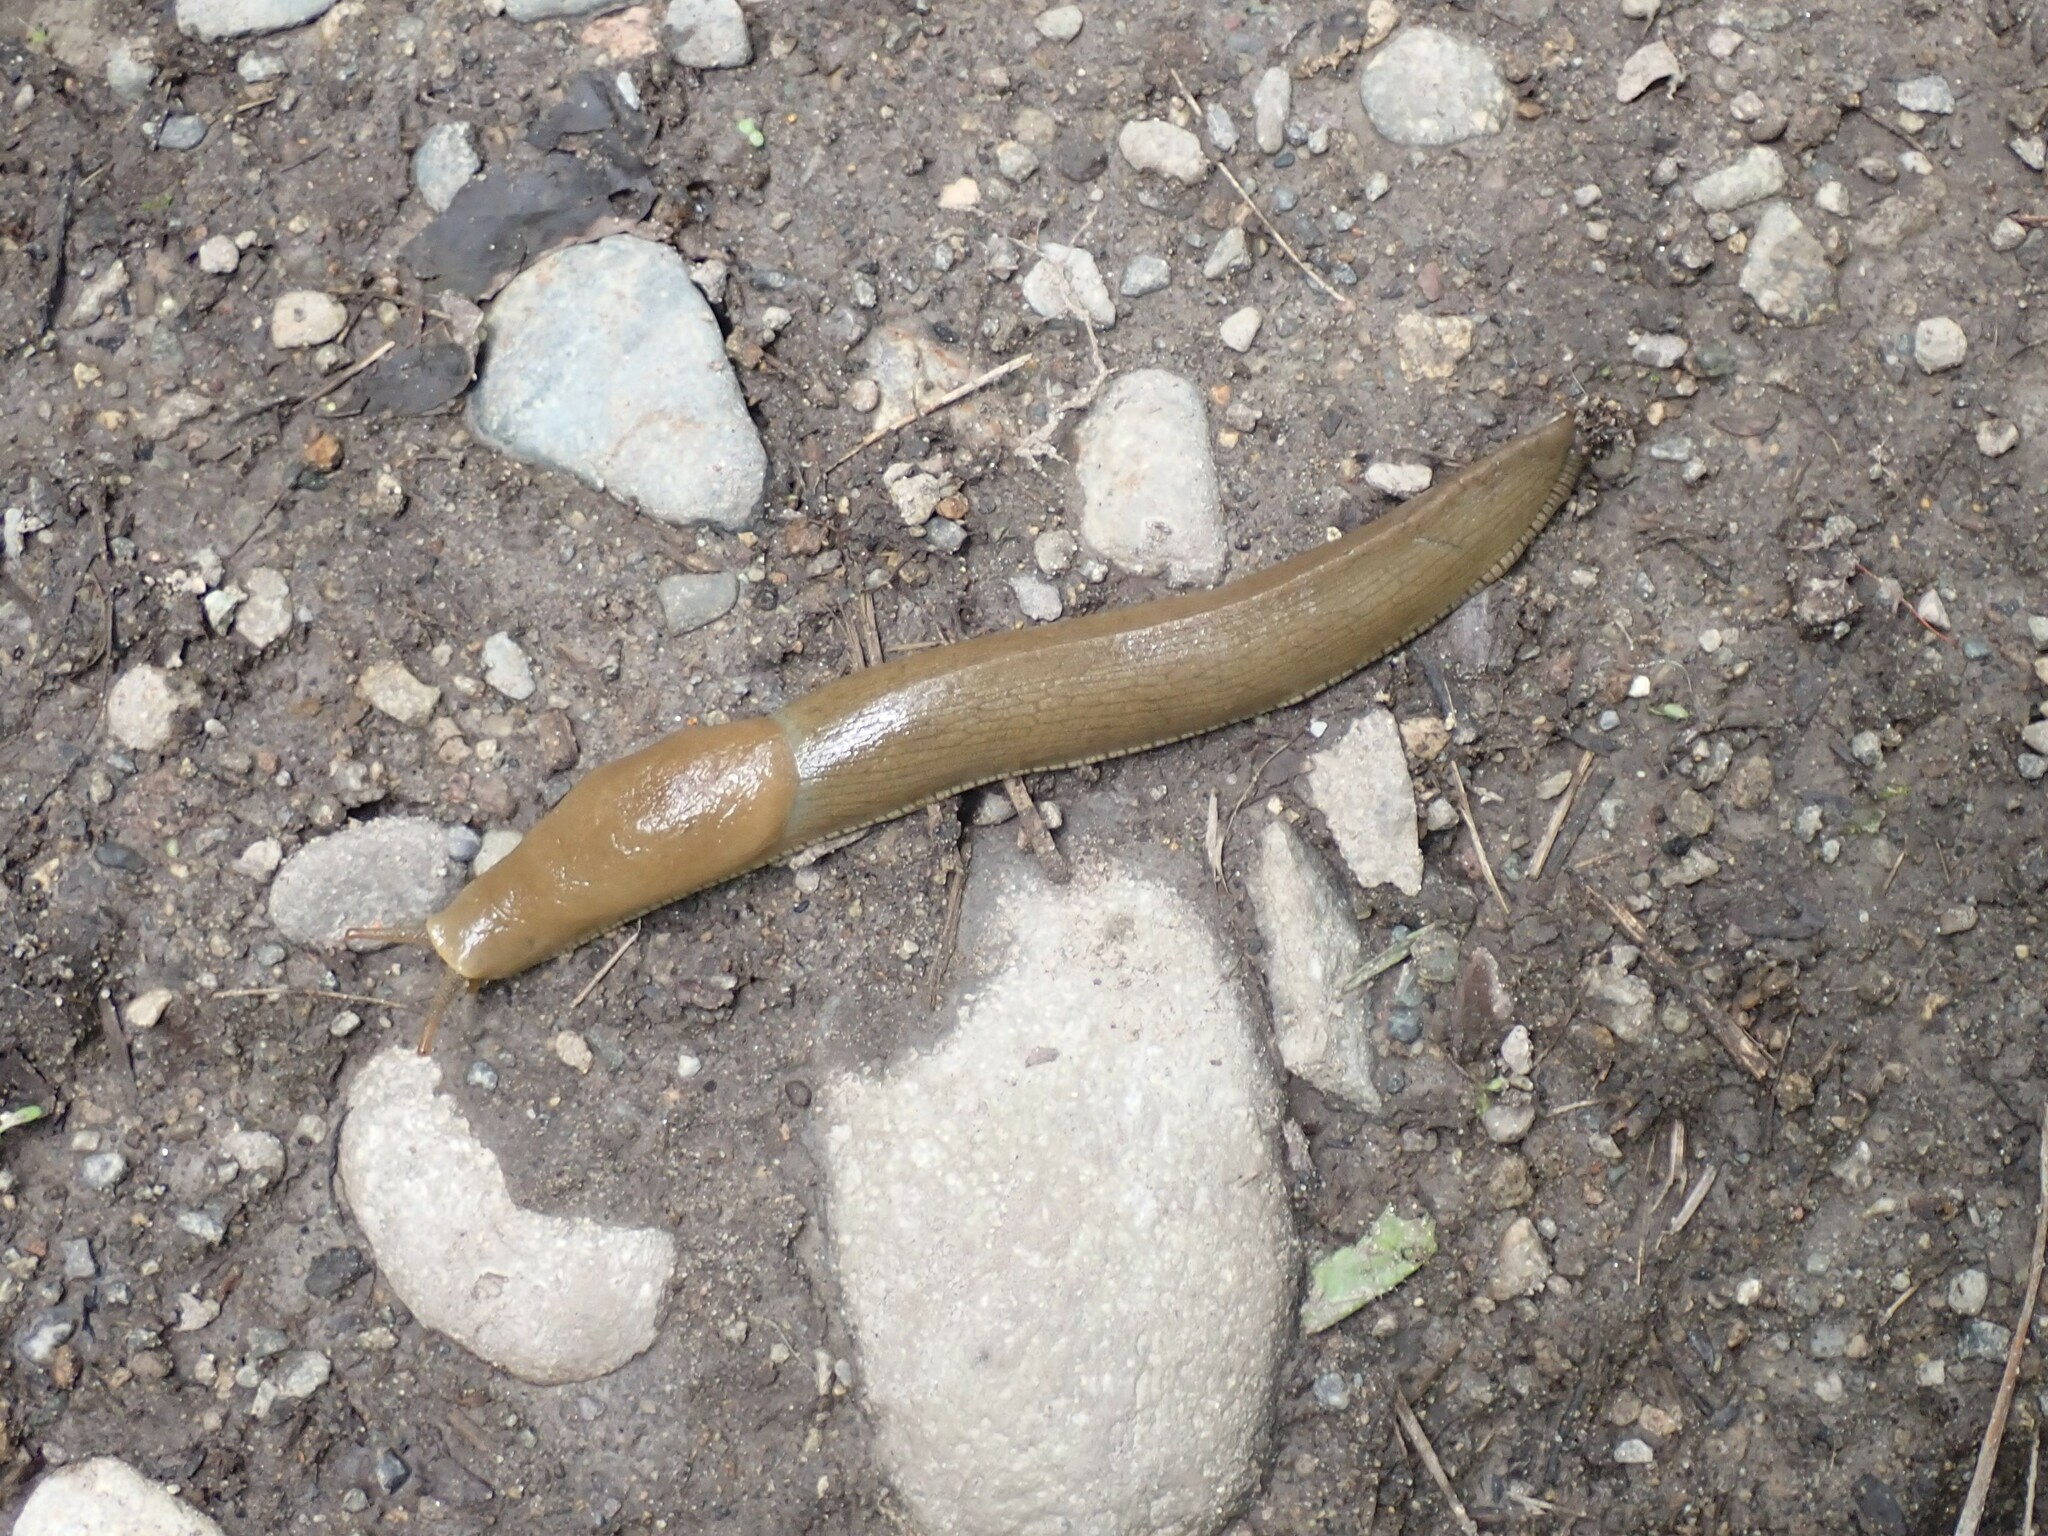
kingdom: Animalia
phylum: Mollusca
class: Gastropoda
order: Stylommatophora
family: Ariolimacidae
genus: Ariolimax
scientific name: Ariolimax columbianus
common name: Pacific banana slug
